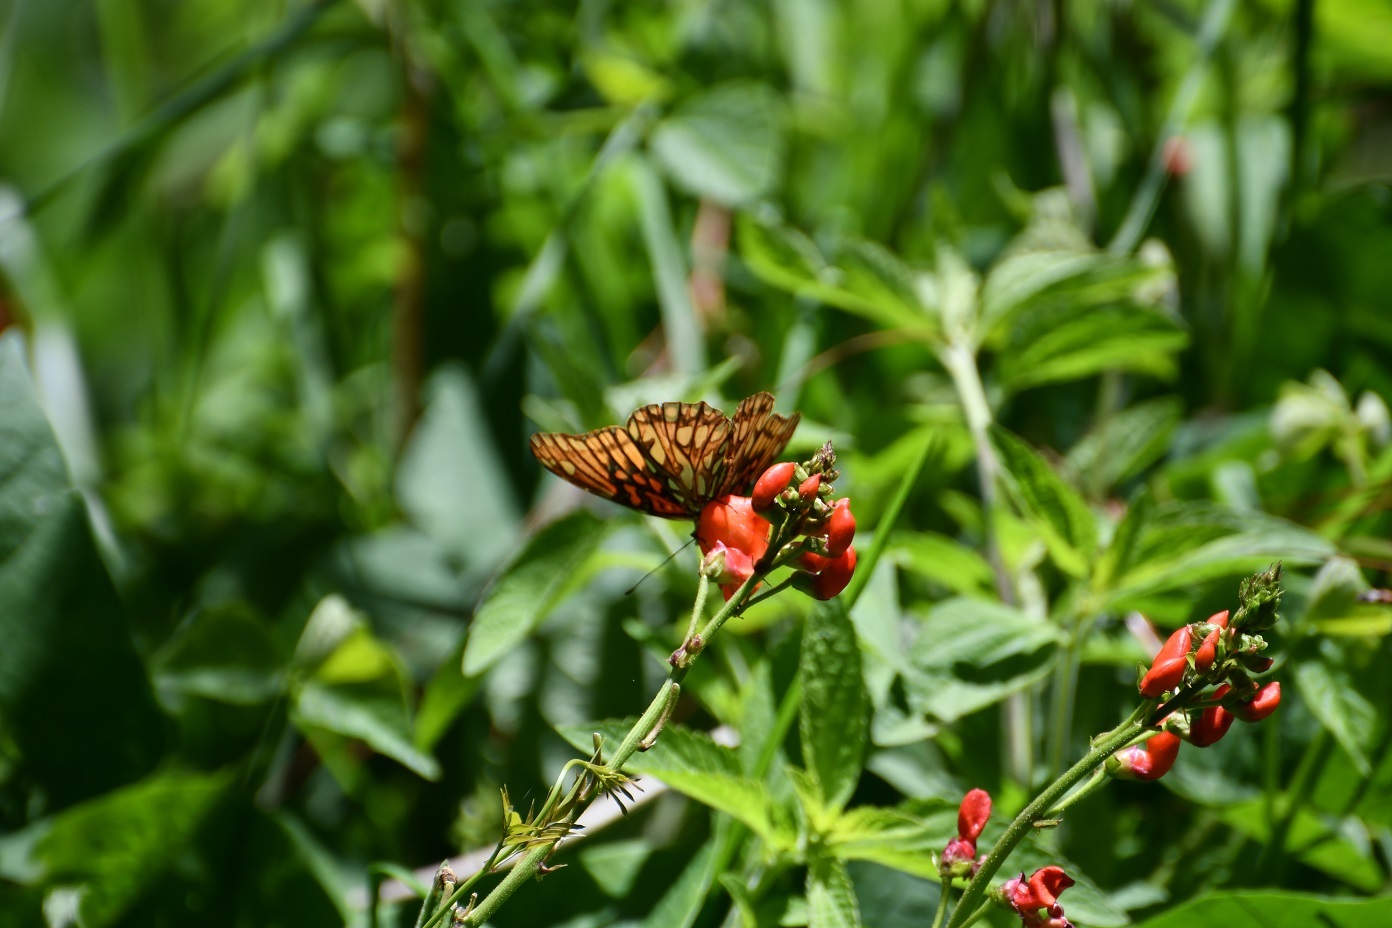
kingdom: Animalia
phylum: Arthropoda
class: Insecta
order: Lepidoptera
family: Nymphalidae
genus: Dione
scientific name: Dione moneta
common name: Mexican silverspot
